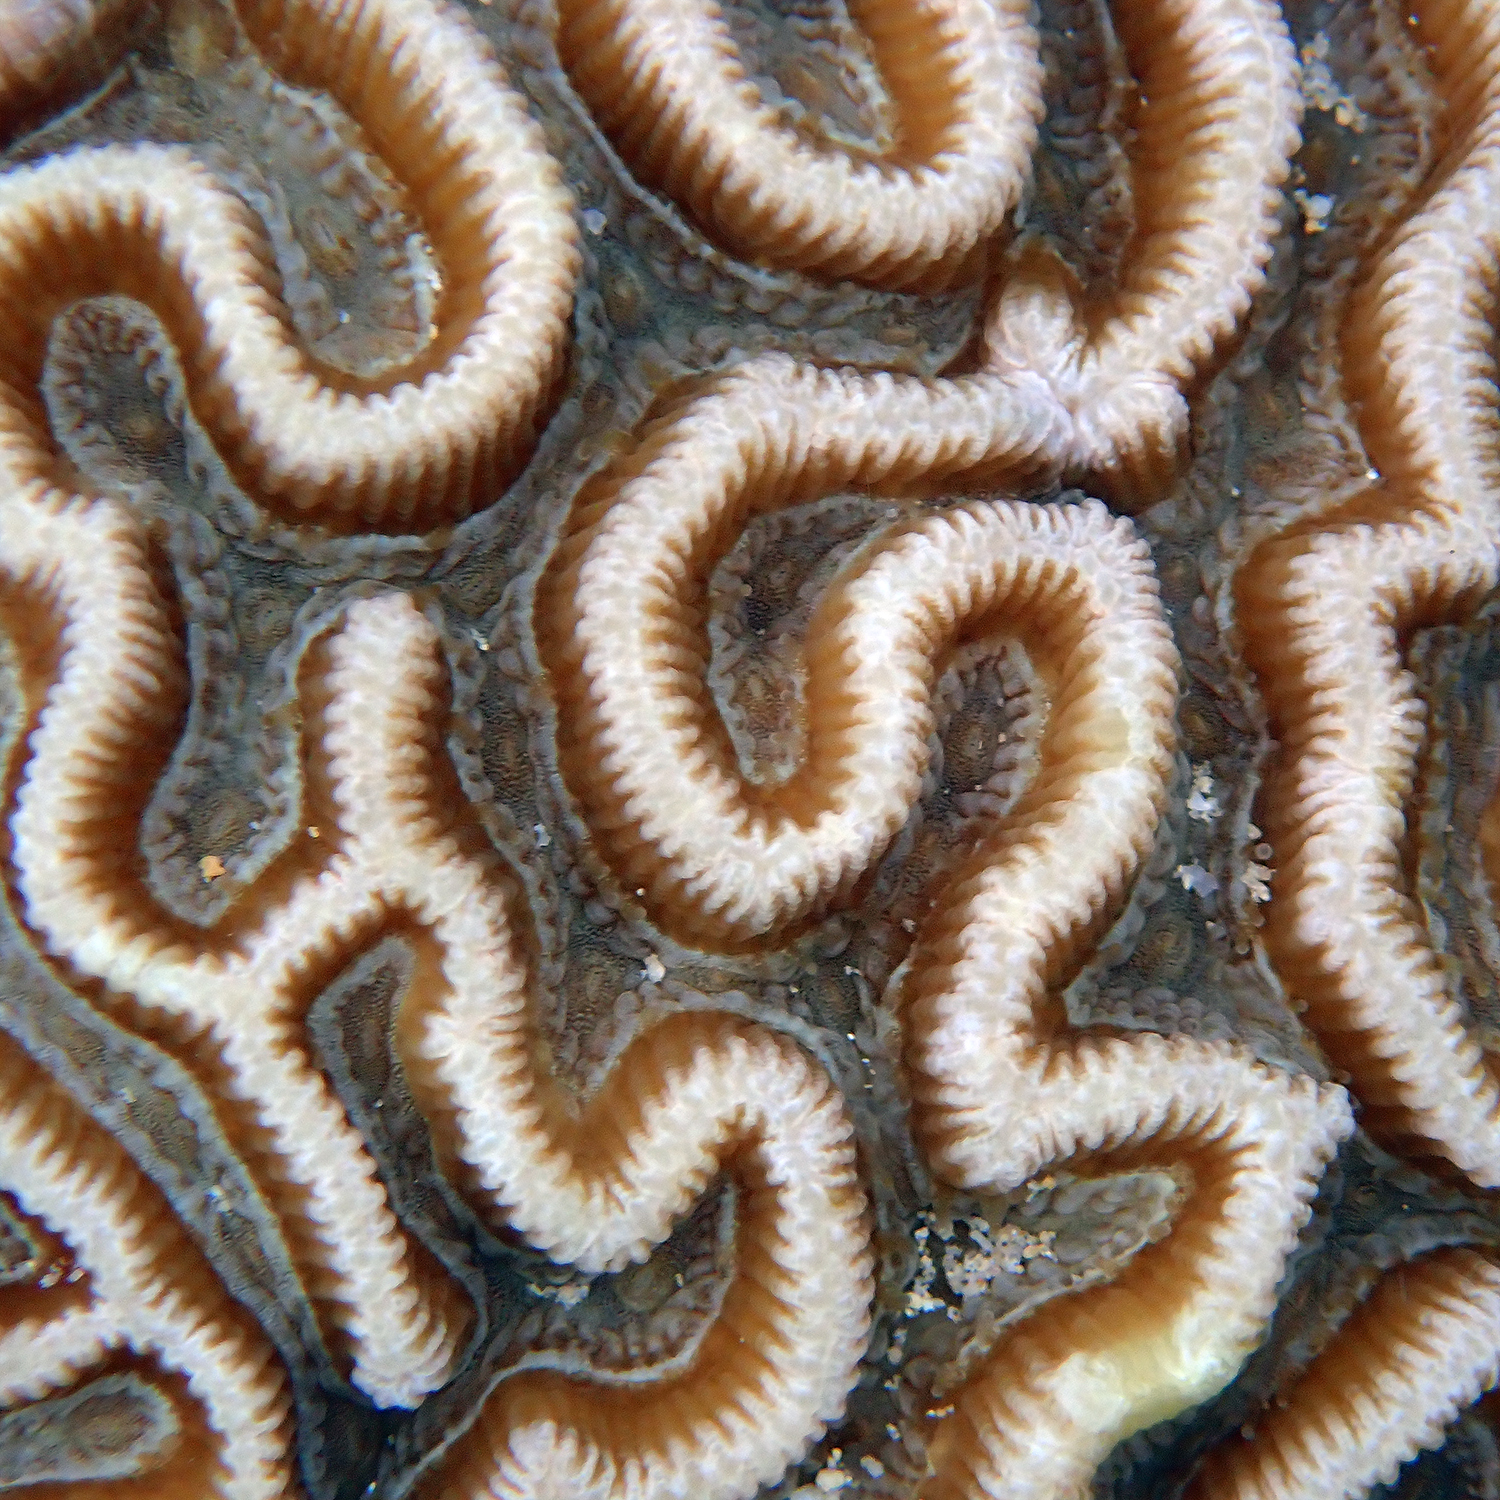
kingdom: Animalia
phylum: Cnidaria
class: Anthozoa
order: Scleractinia
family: Merulinidae
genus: Paragoniastrea
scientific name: Paragoniastrea australensis
